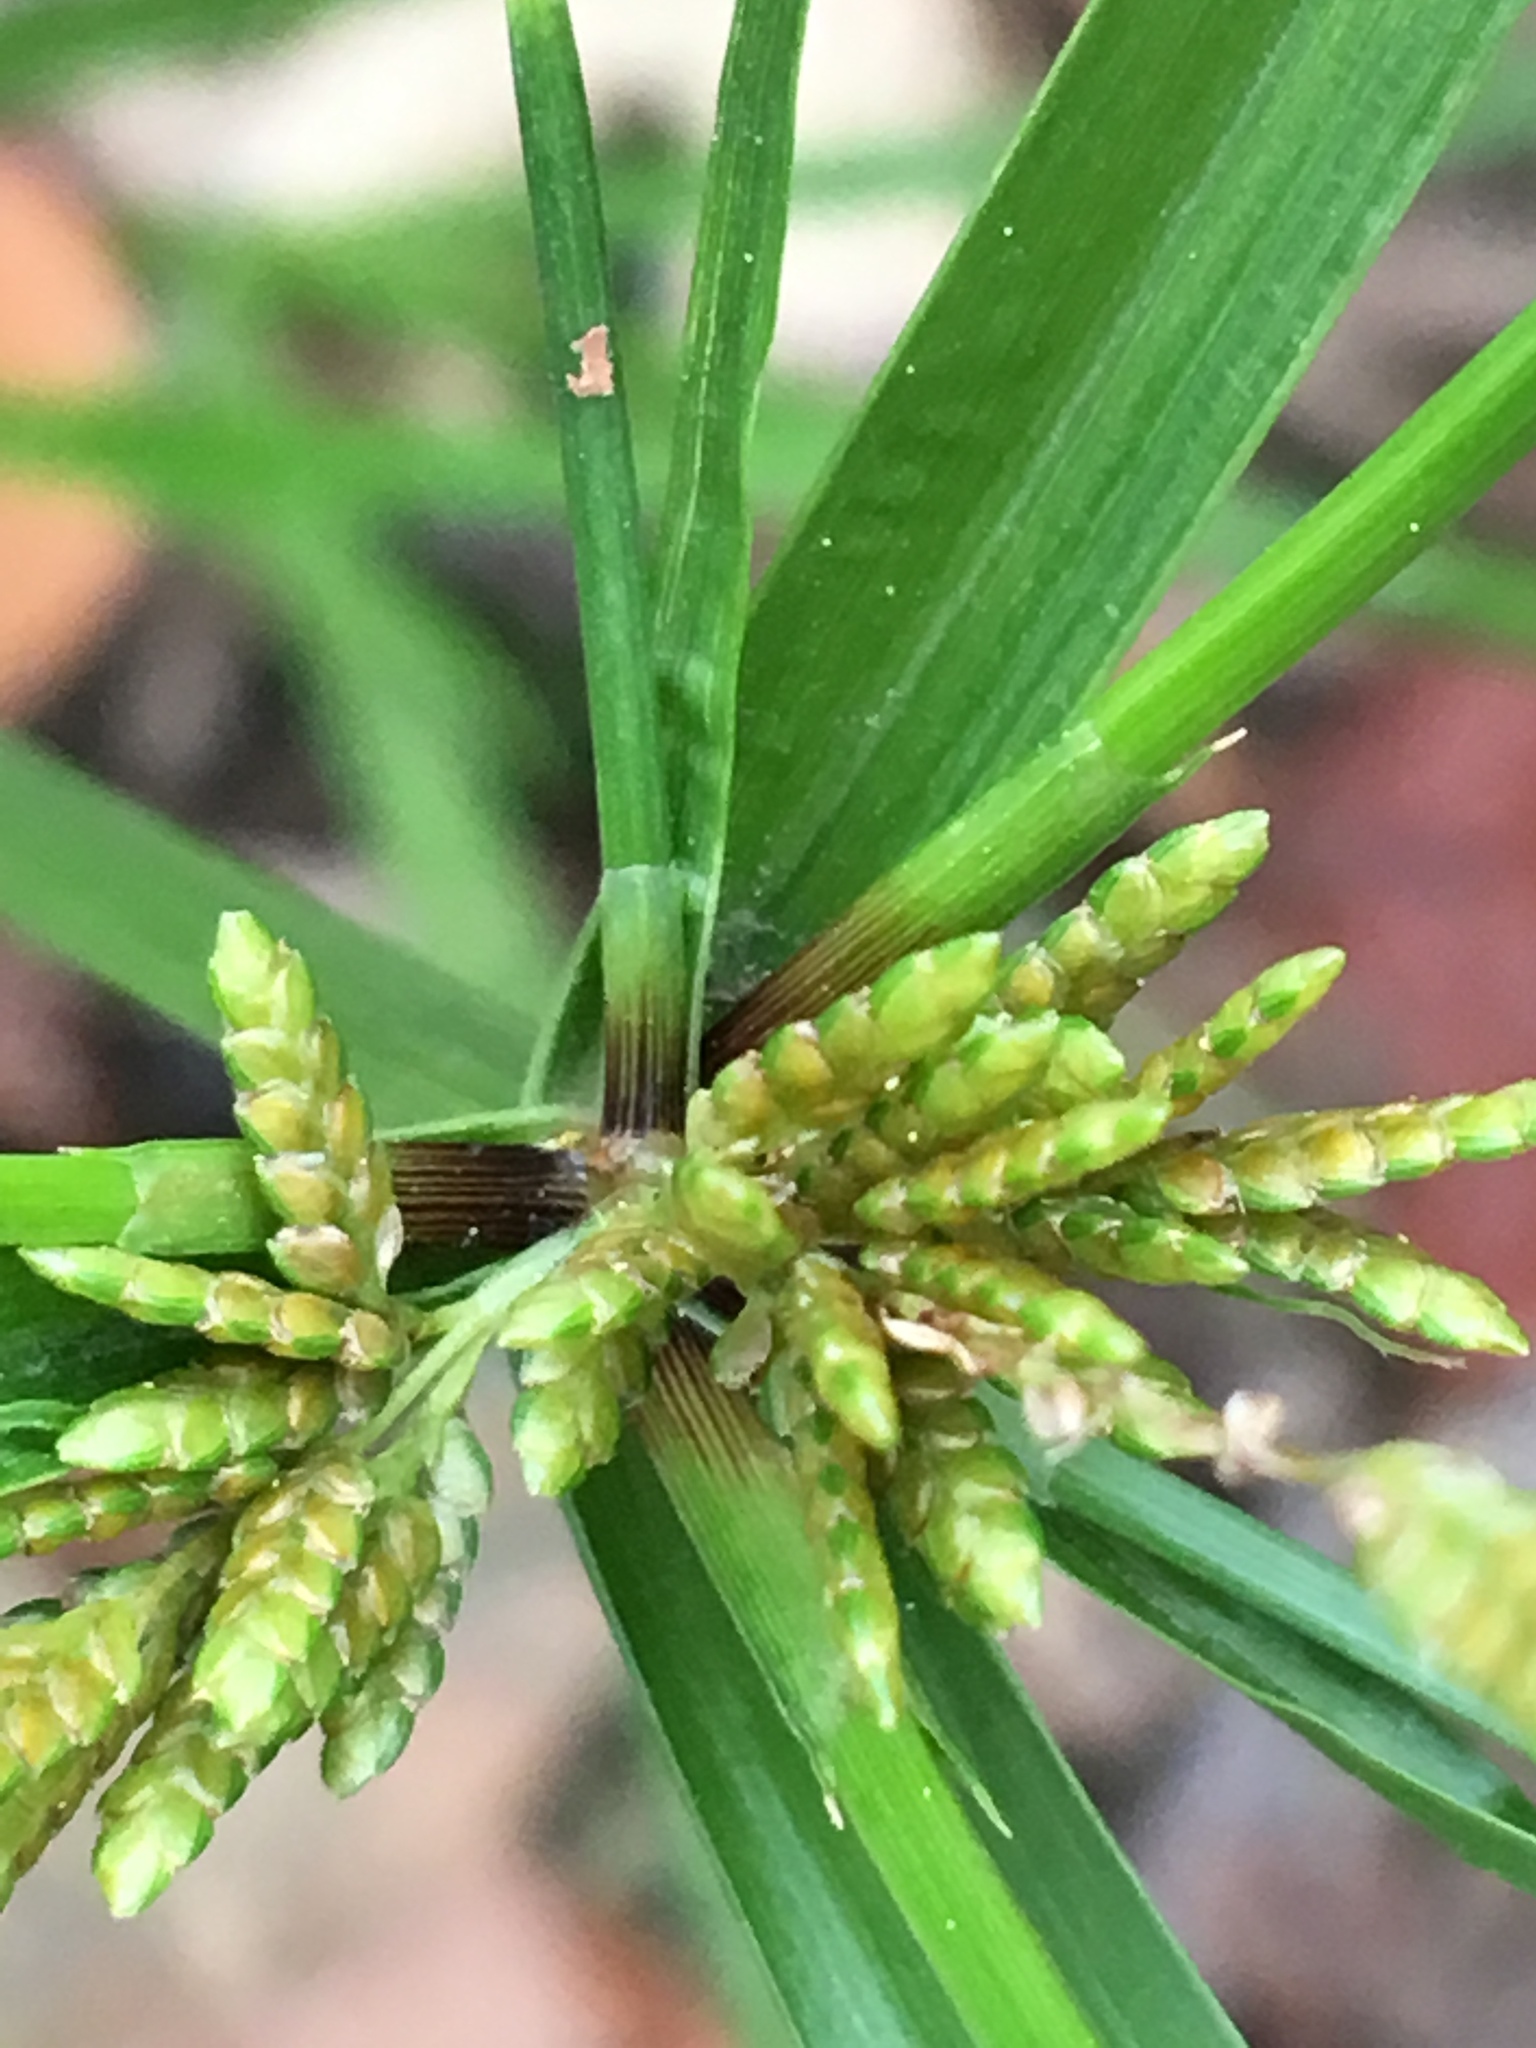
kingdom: Plantae
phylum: Tracheophyta
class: Liliopsida
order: Poales
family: Cyperaceae
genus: Cyperus
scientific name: Cyperus iria
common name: Ricefield flatsedge
